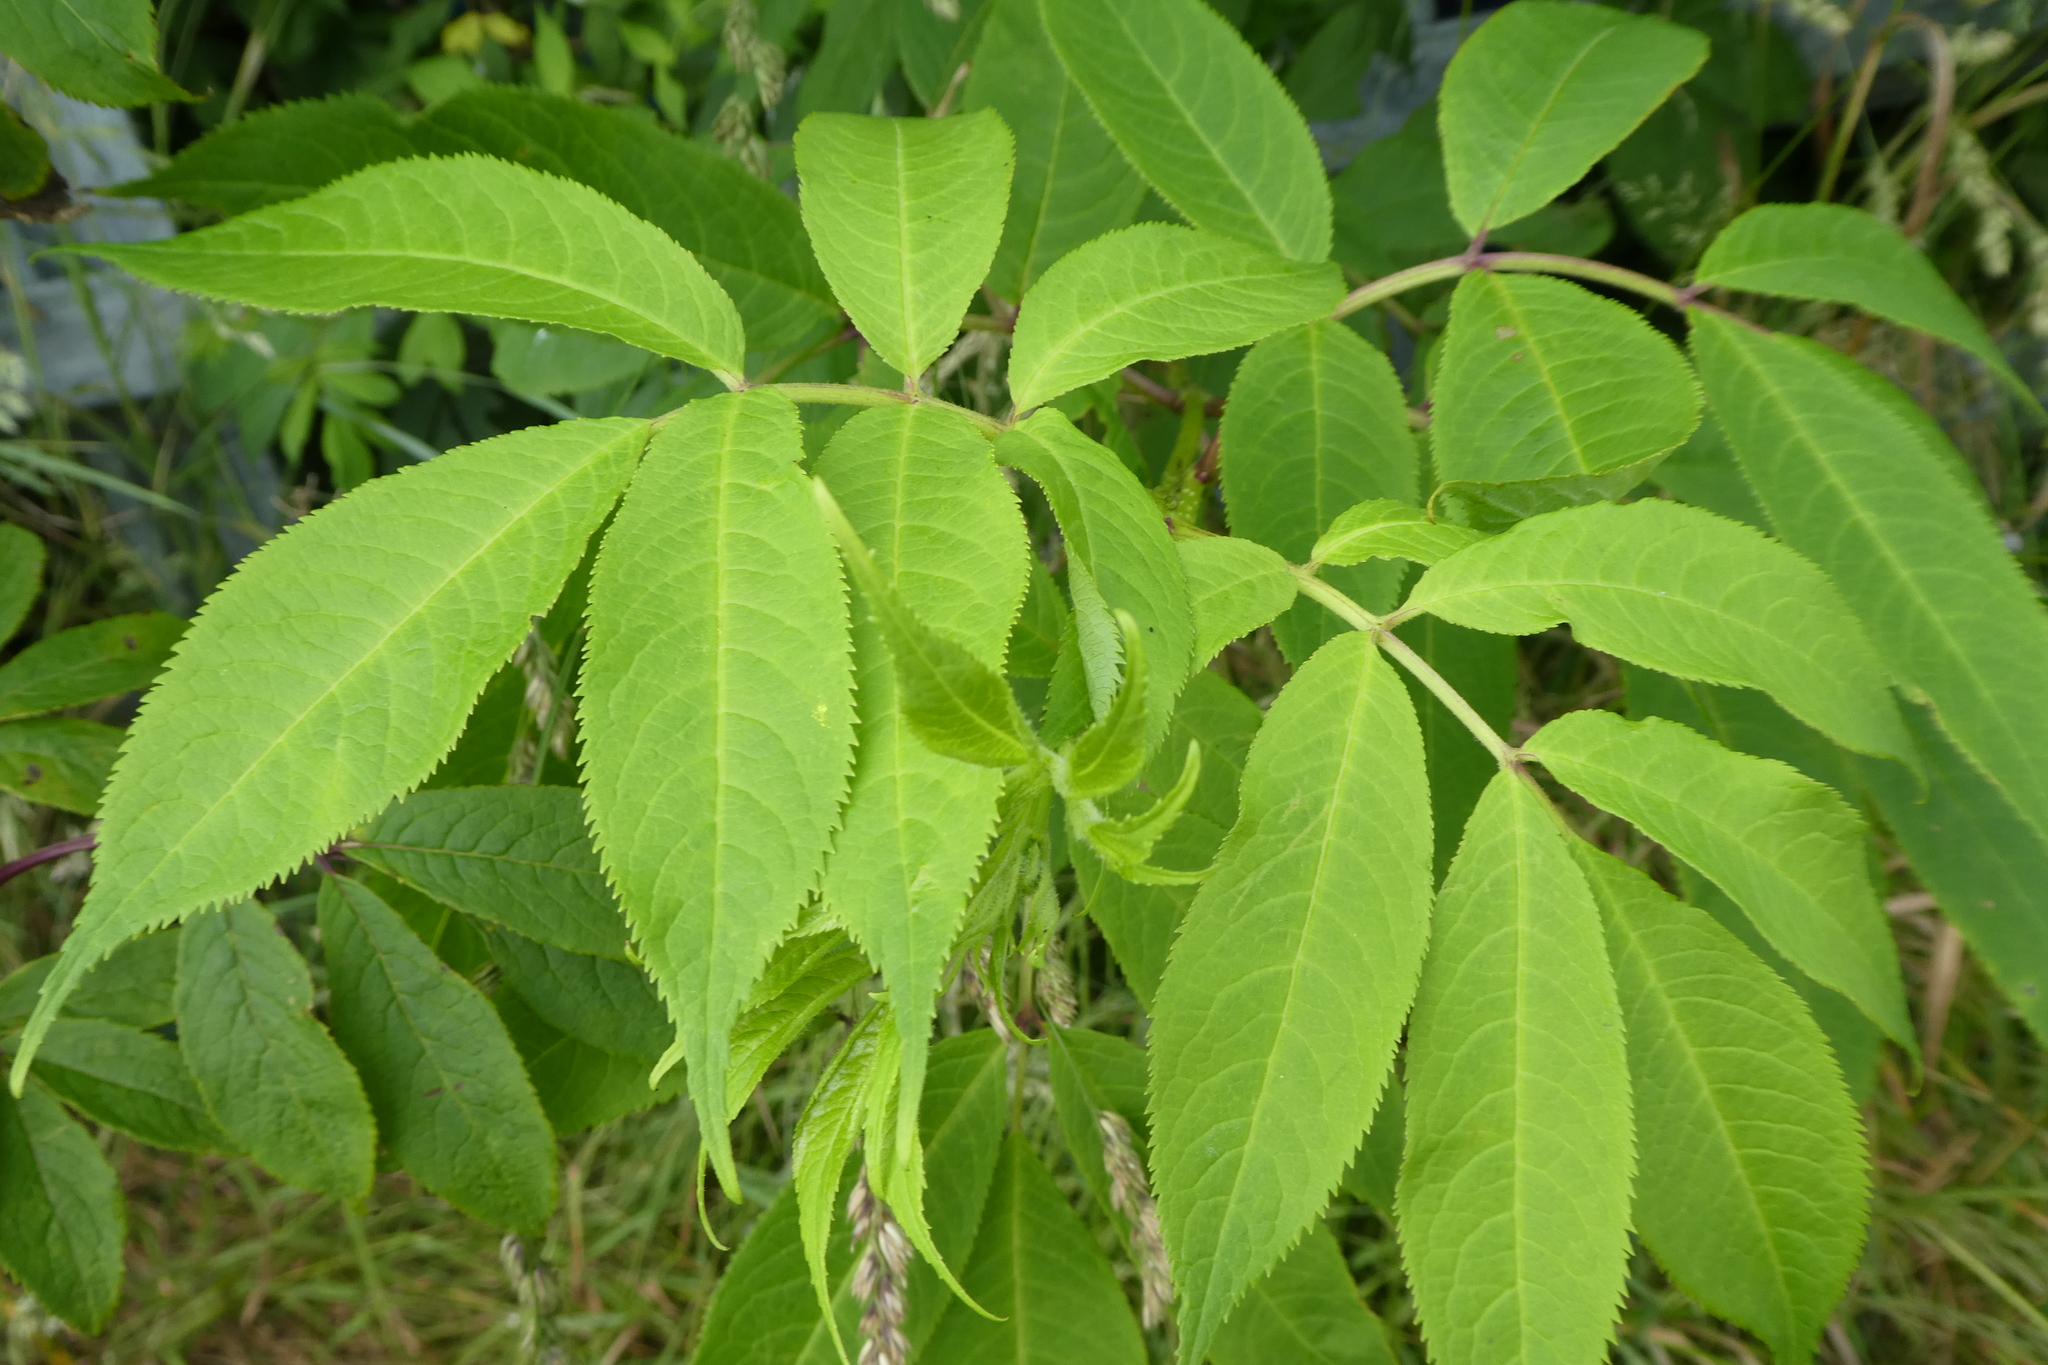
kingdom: Plantae
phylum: Tracheophyta
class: Magnoliopsida
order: Dipsacales
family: Viburnaceae
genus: Sambucus
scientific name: Sambucus racemosa
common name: Red-berried elder
